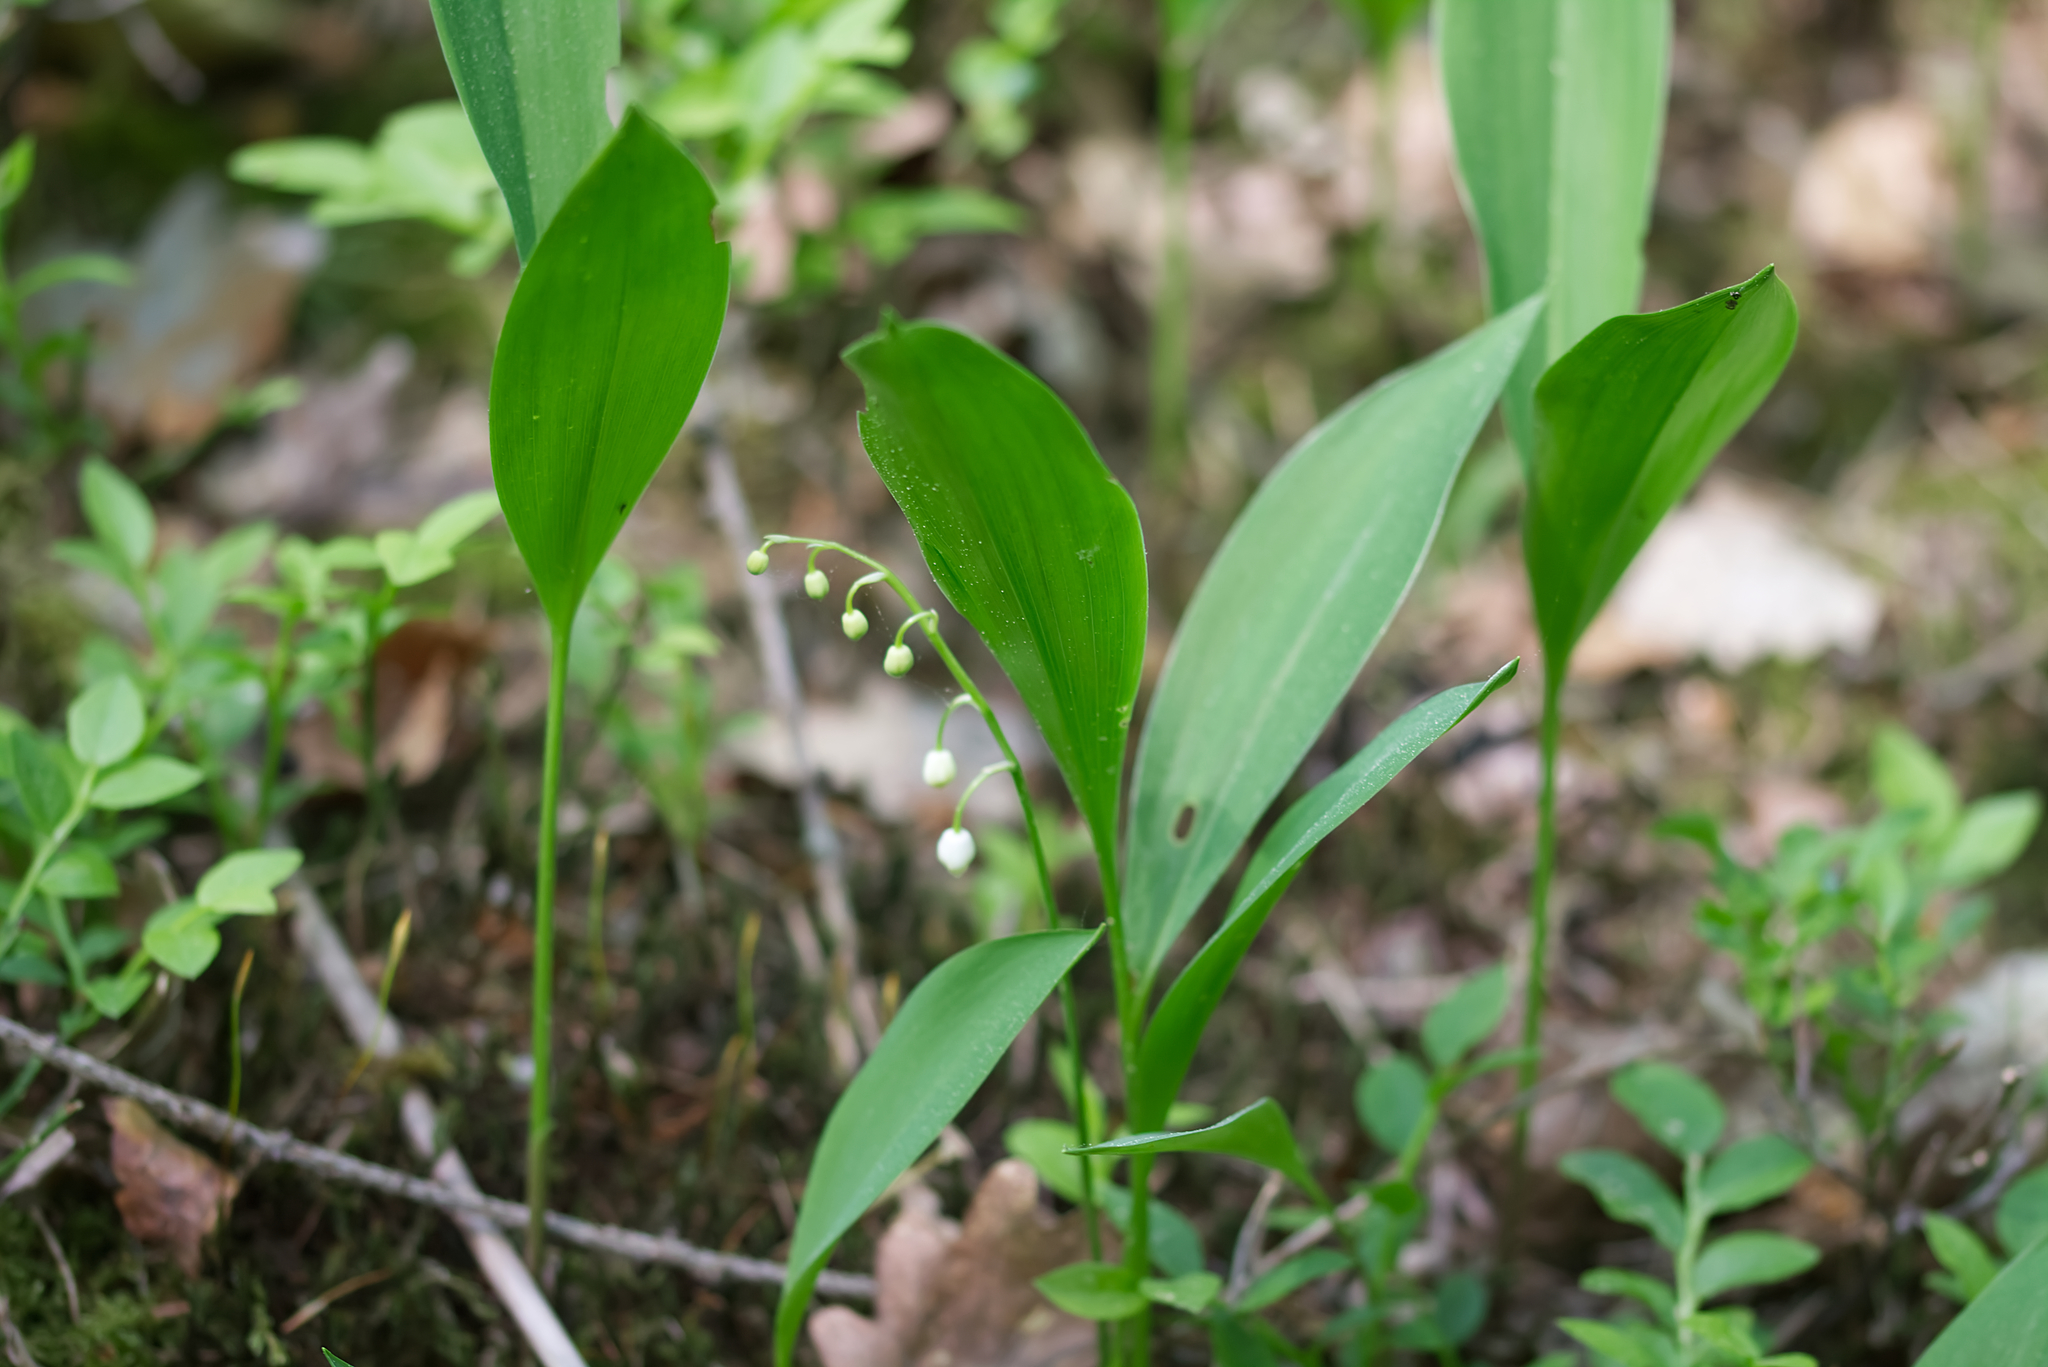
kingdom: Plantae
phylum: Tracheophyta
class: Liliopsida
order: Asparagales
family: Asparagaceae
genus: Convallaria
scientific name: Convallaria majalis
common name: Lily-of-the-valley
